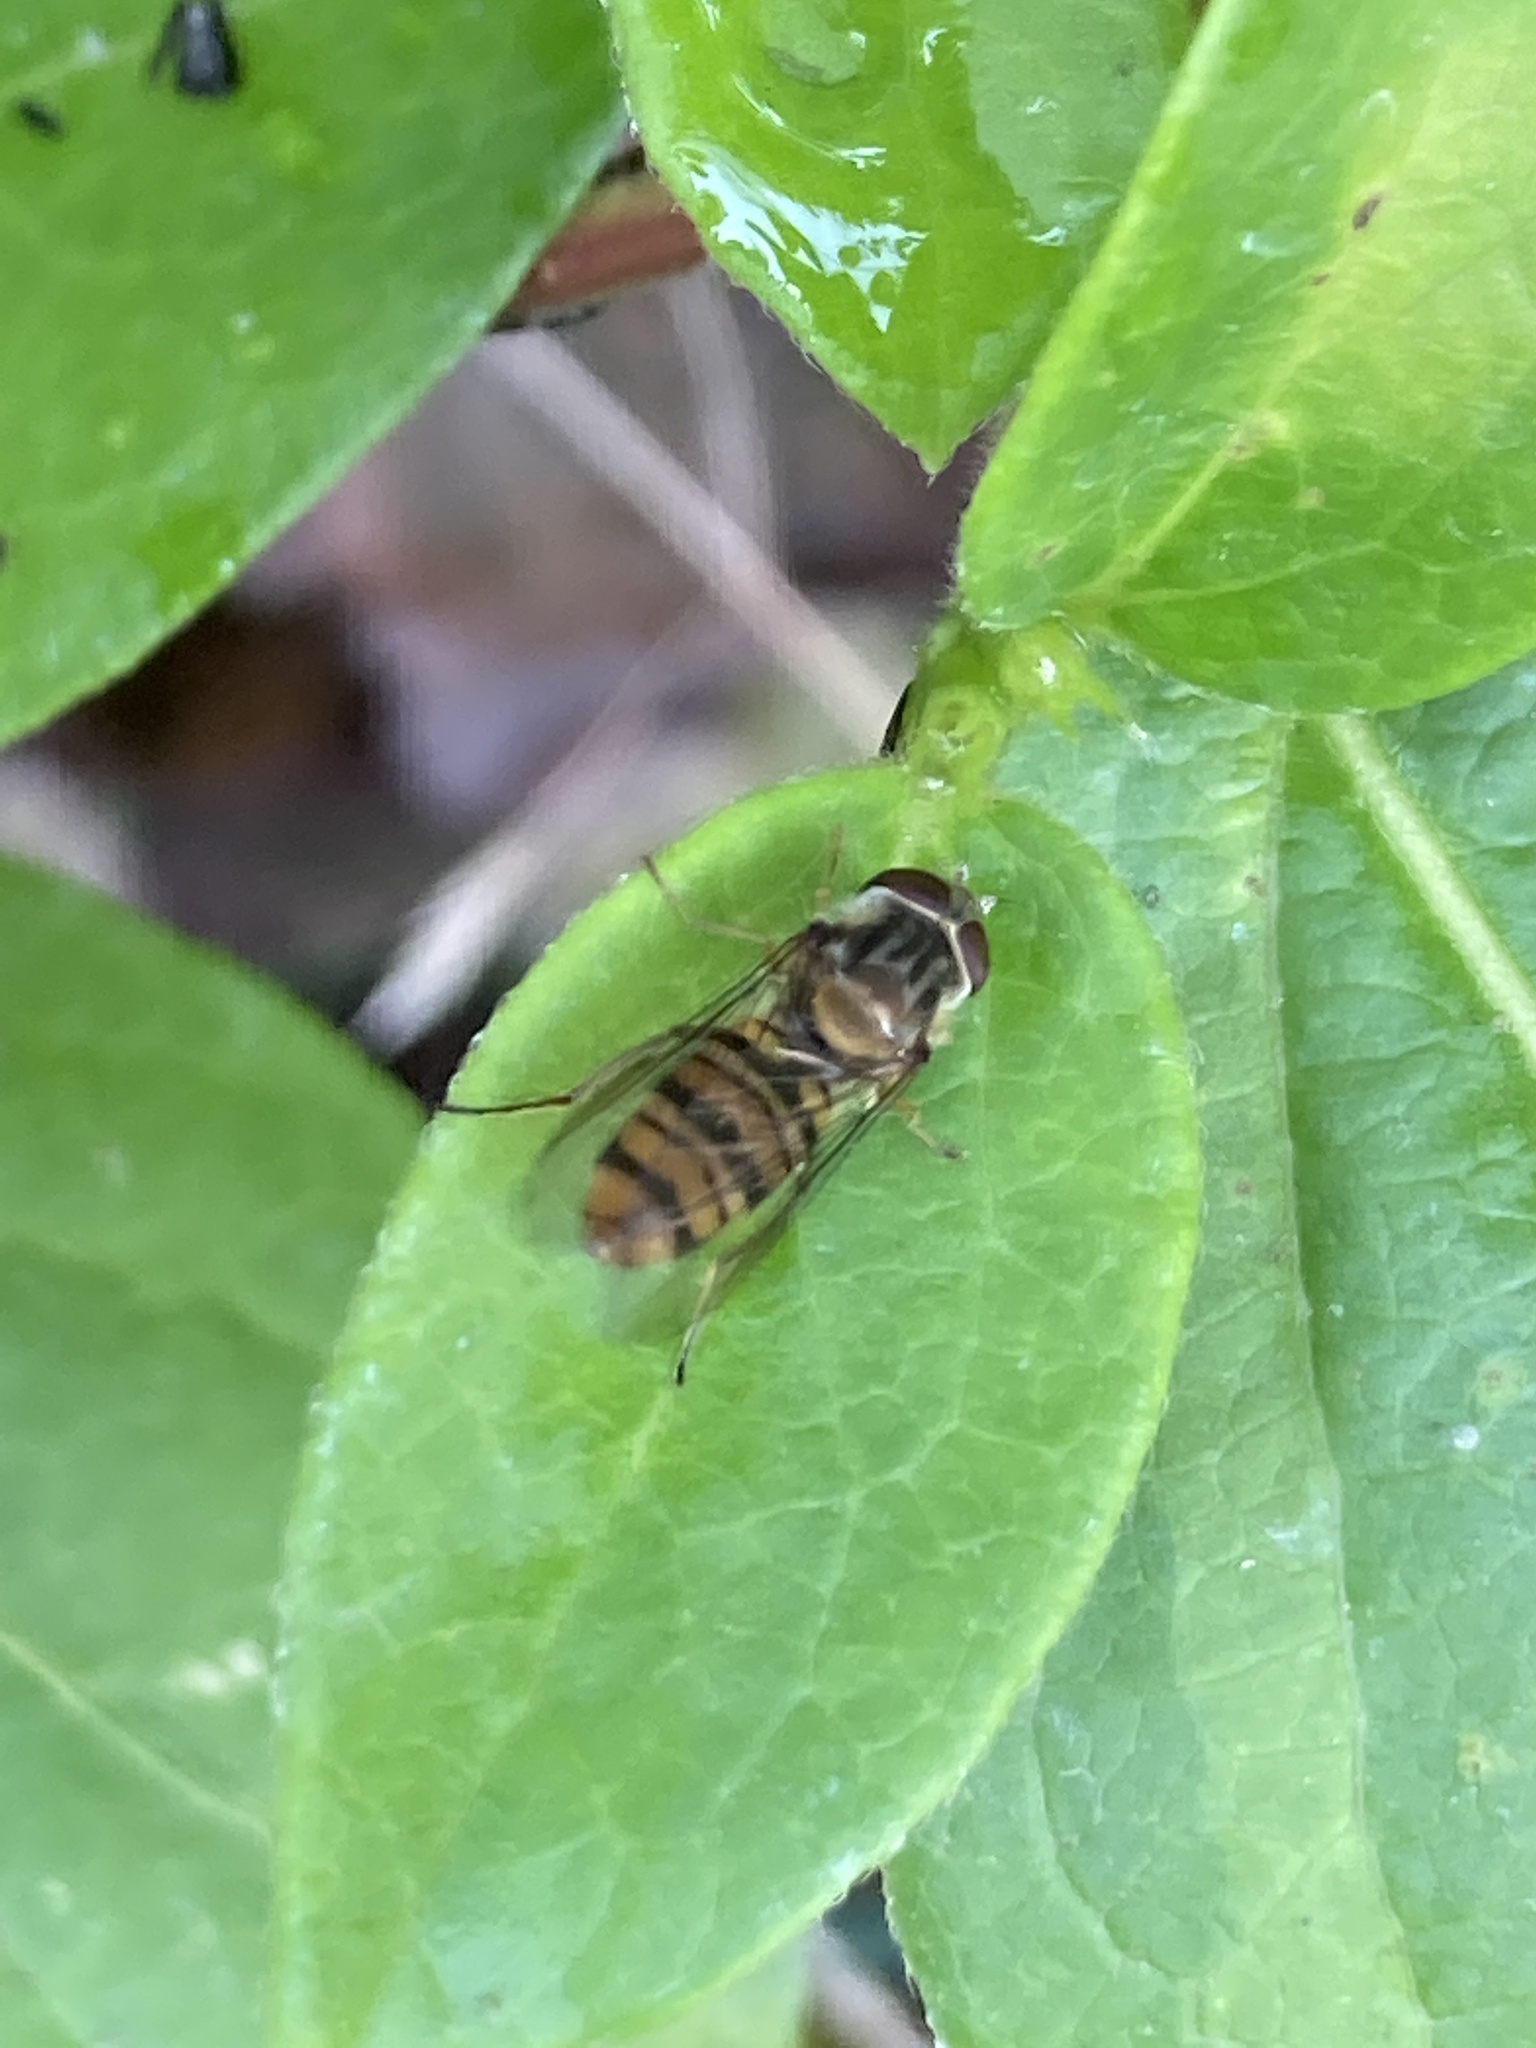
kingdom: Animalia
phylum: Arthropoda
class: Insecta
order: Diptera
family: Syrphidae
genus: Episyrphus
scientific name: Episyrphus balteatus
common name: Marmalade hoverfly
